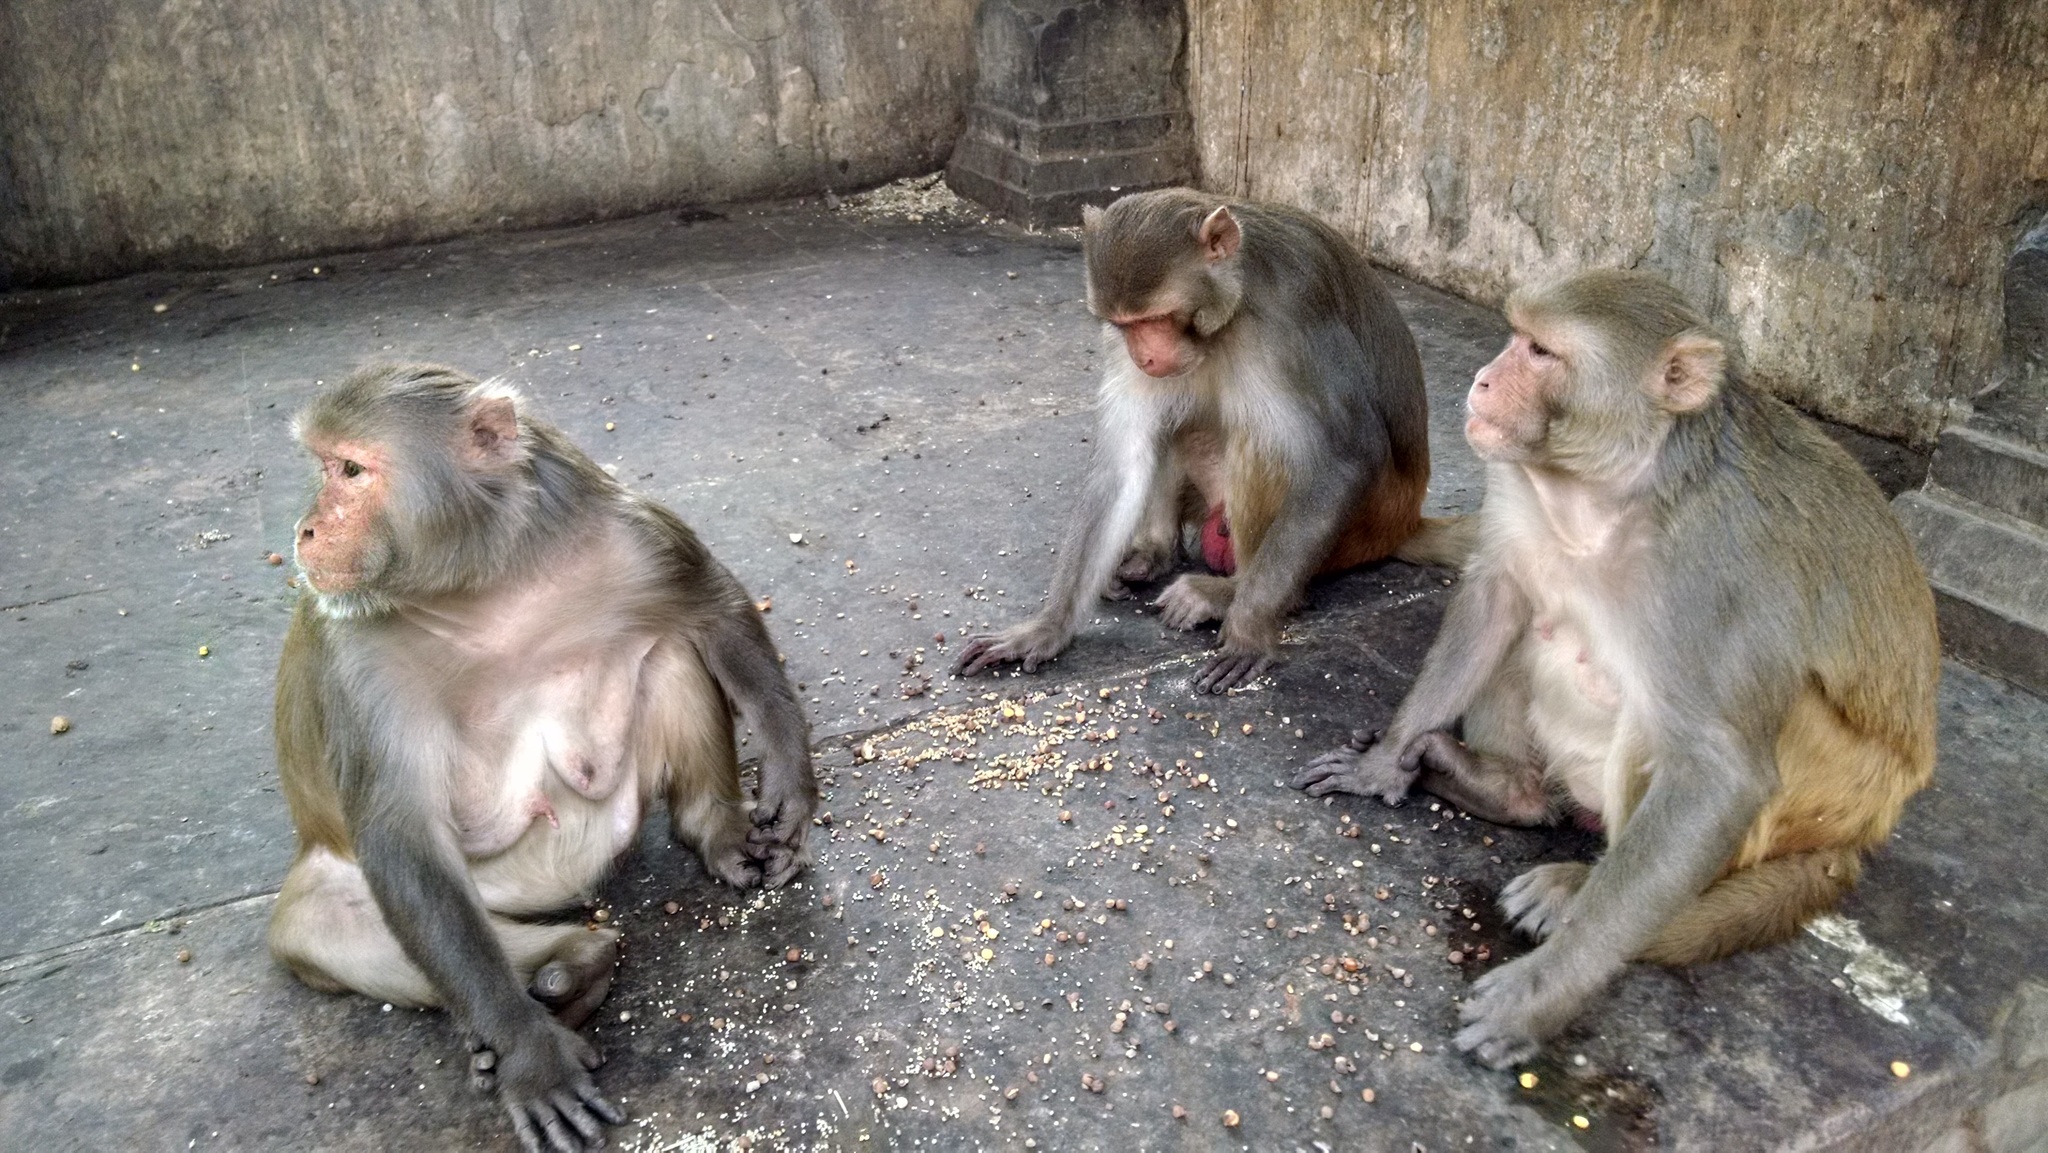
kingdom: Animalia
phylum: Chordata
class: Mammalia
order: Primates
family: Cercopithecidae
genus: Macaca
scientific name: Macaca mulatta
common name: Rhesus monkey
